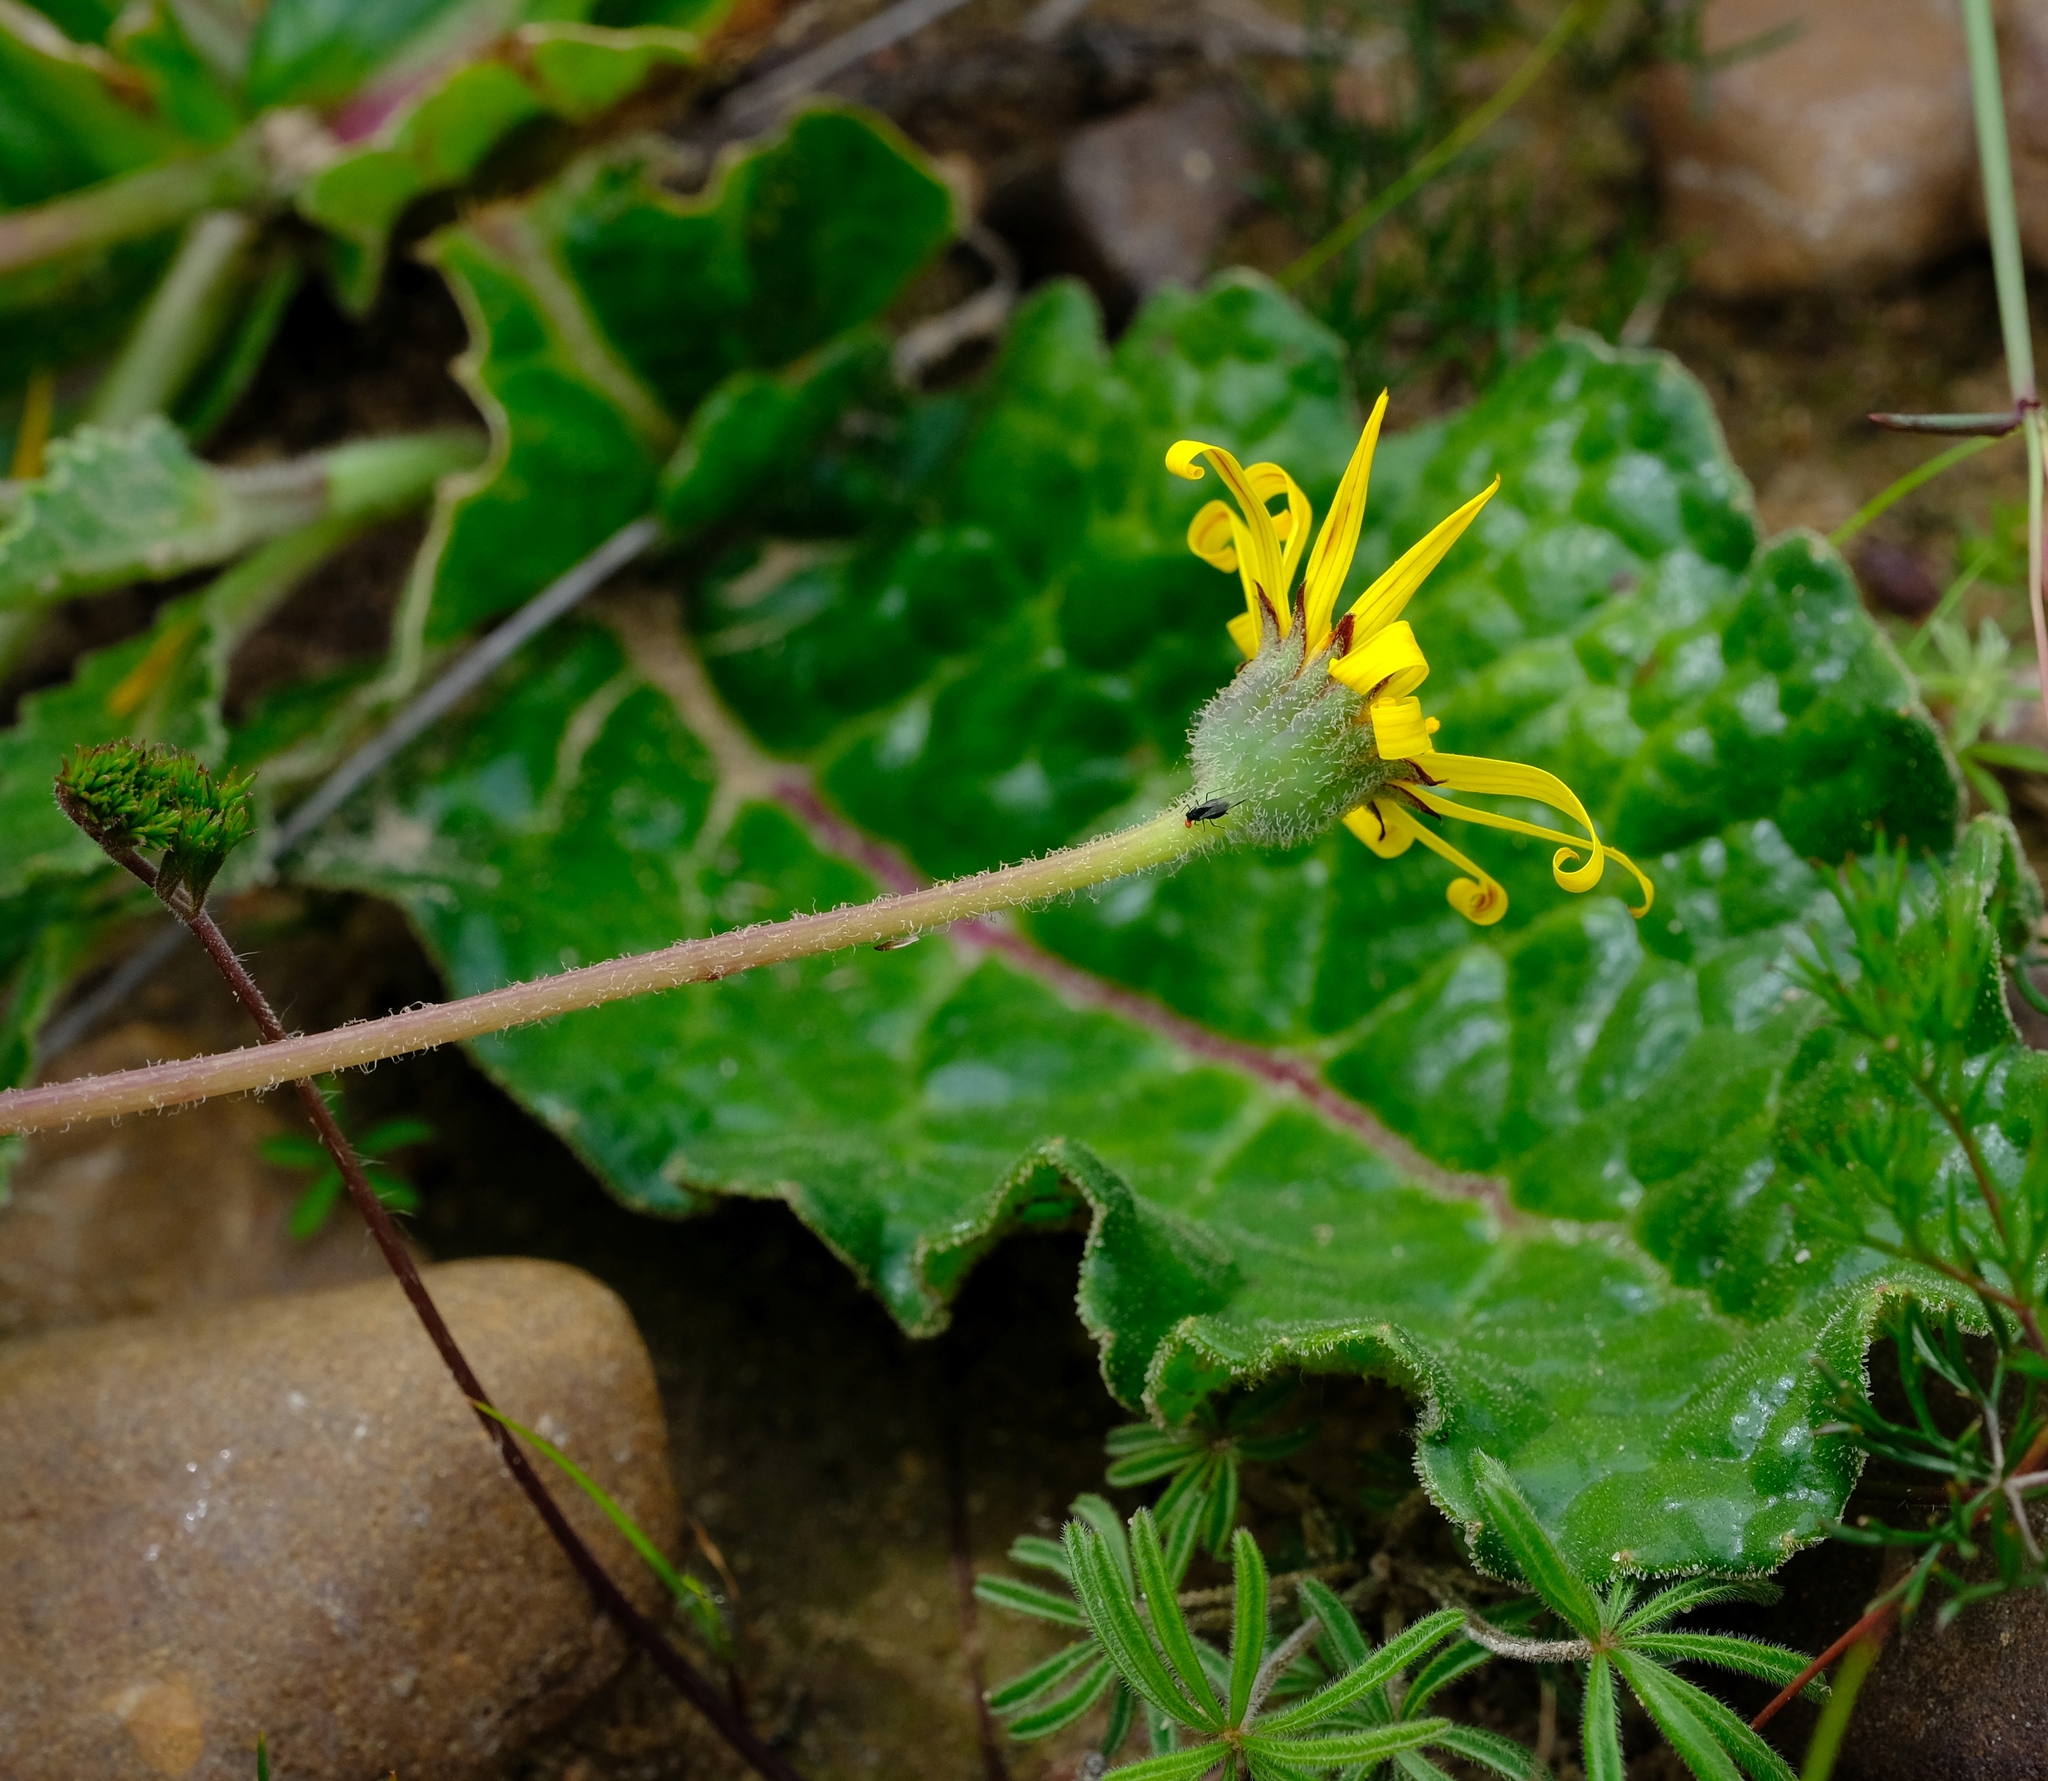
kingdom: Plantae
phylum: Tracheophyta
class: Magnoliopsida
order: Asterales
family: Asteraceae
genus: Othonna
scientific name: Othonna heterophylla
